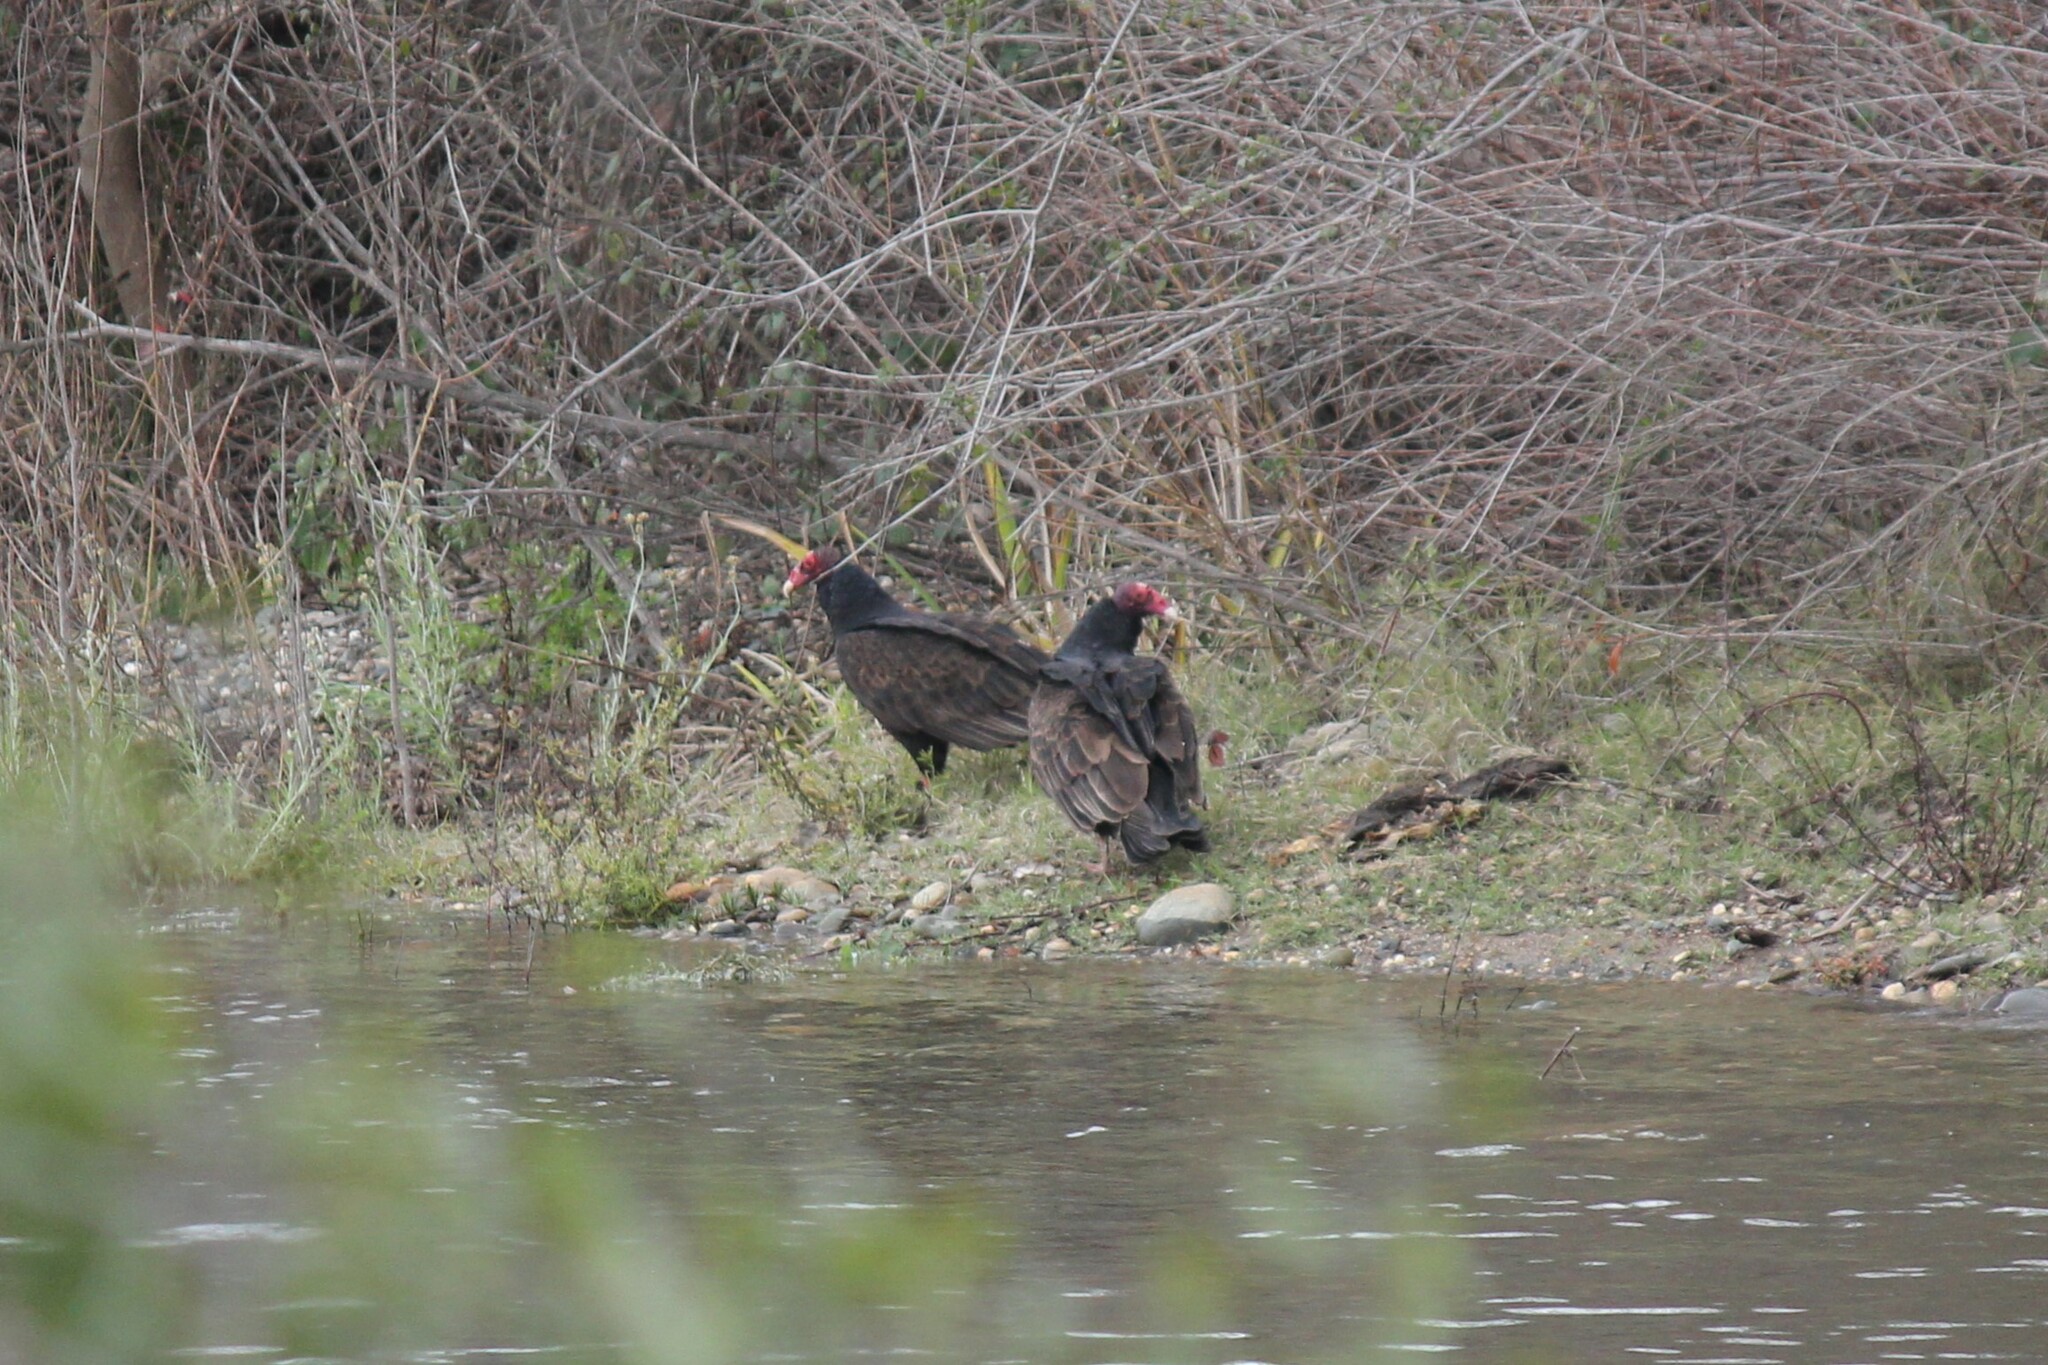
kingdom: Animalia
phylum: Chordata
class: Aves
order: Accipitriformes
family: Cathartidae
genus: Cathartes
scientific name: Cathartes aura
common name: Turkey vulture
